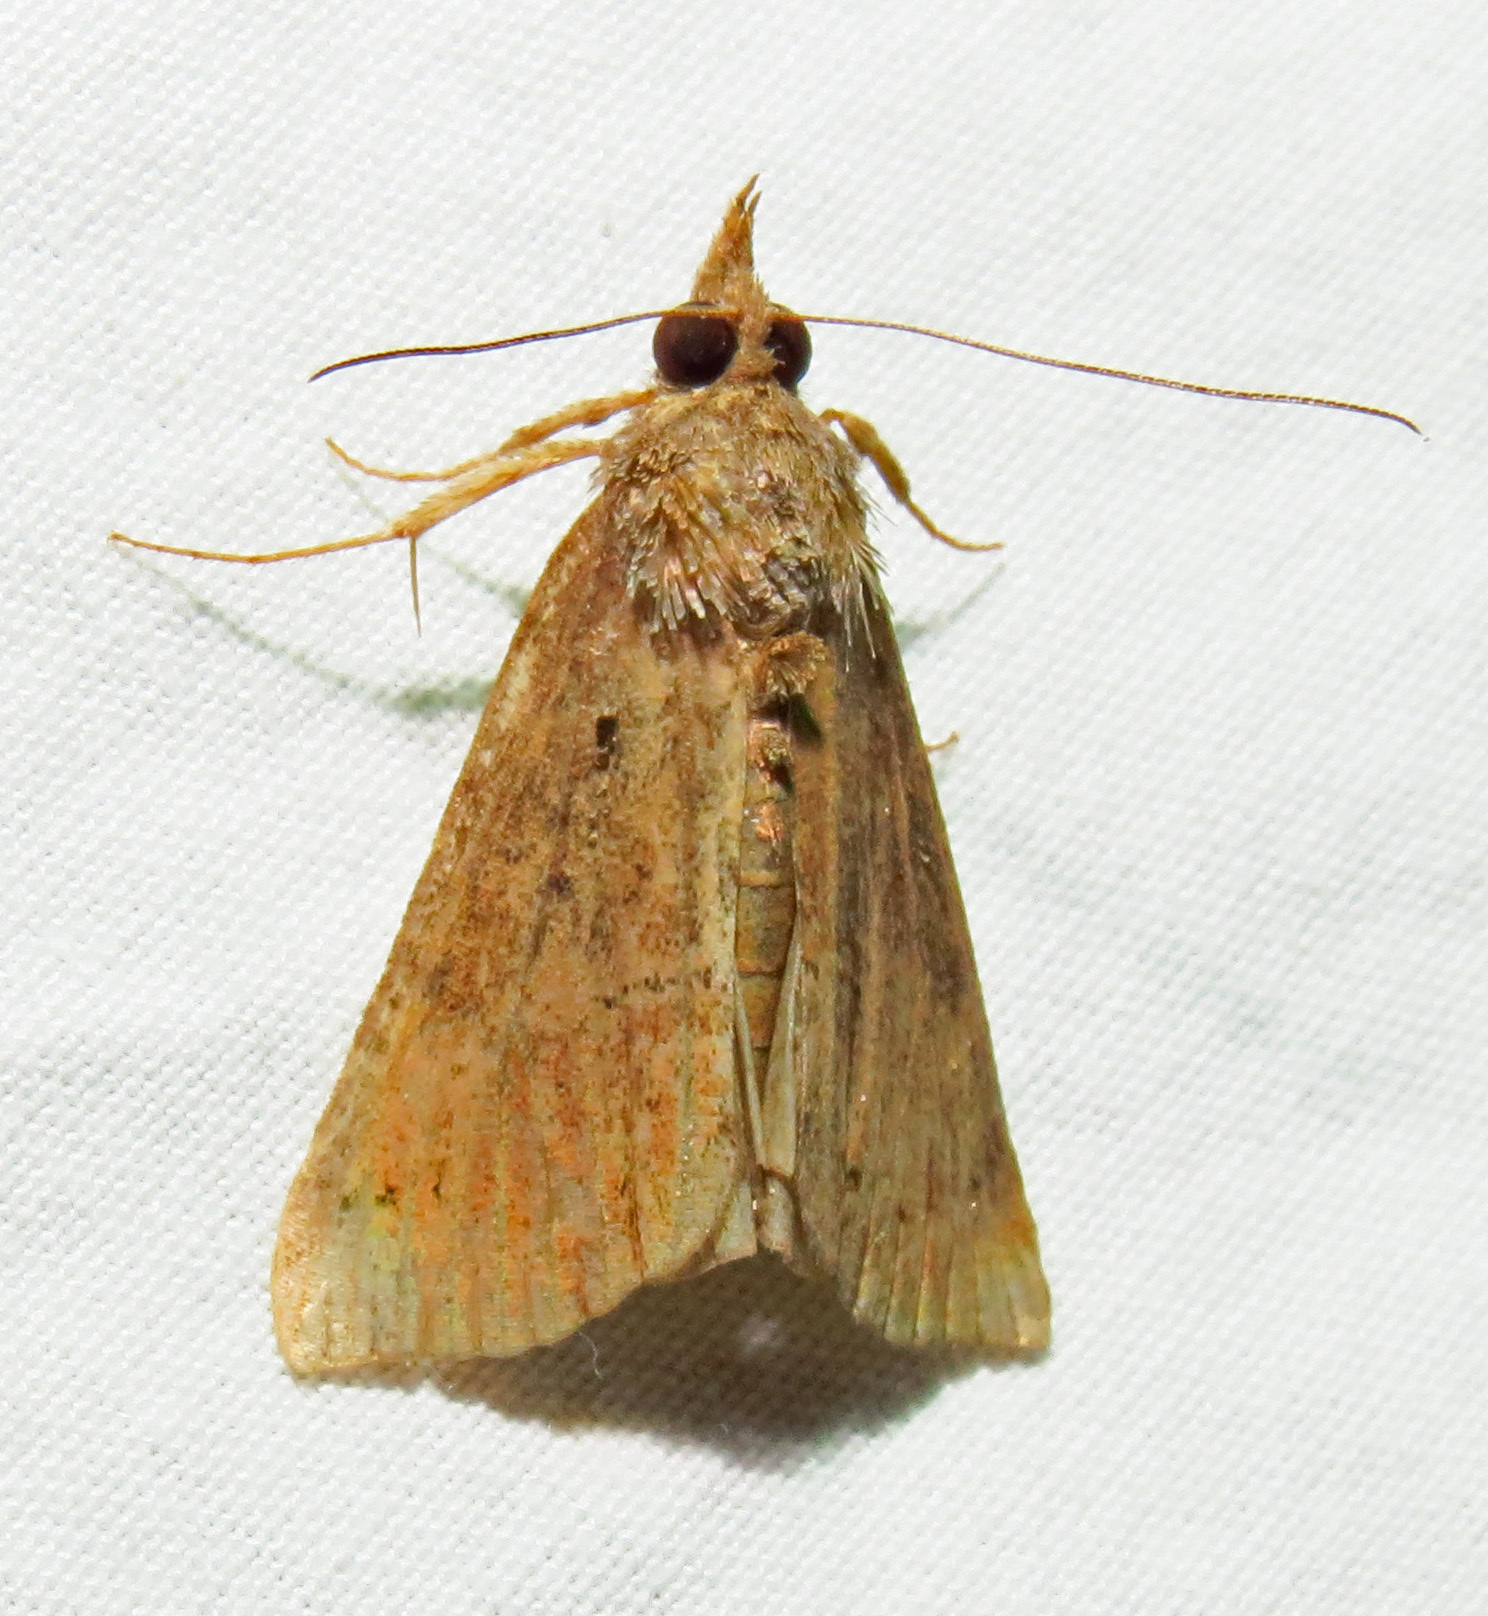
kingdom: Animalia
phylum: Arthropoda
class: Insecta
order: Lepidoptera
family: Erebidae
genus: Hypena
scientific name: Hypena scabra
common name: Green cloverworm
